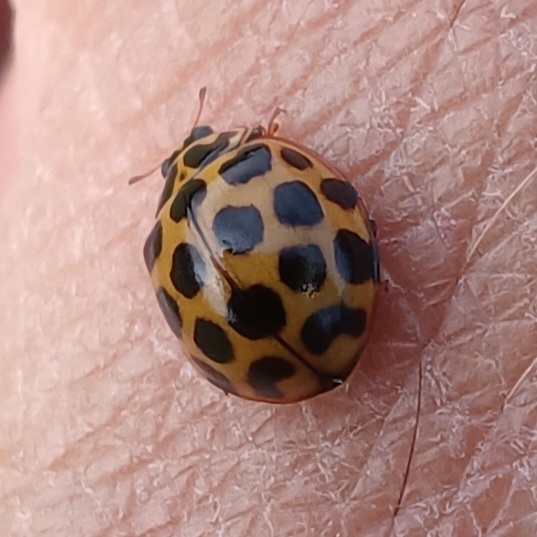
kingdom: Animalia
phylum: Arthropoda
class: Insecta
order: Coleoptera
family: Coccinellidae
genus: Harmonia
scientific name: Harmonia conformis
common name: Common spotted ladybird beetle
